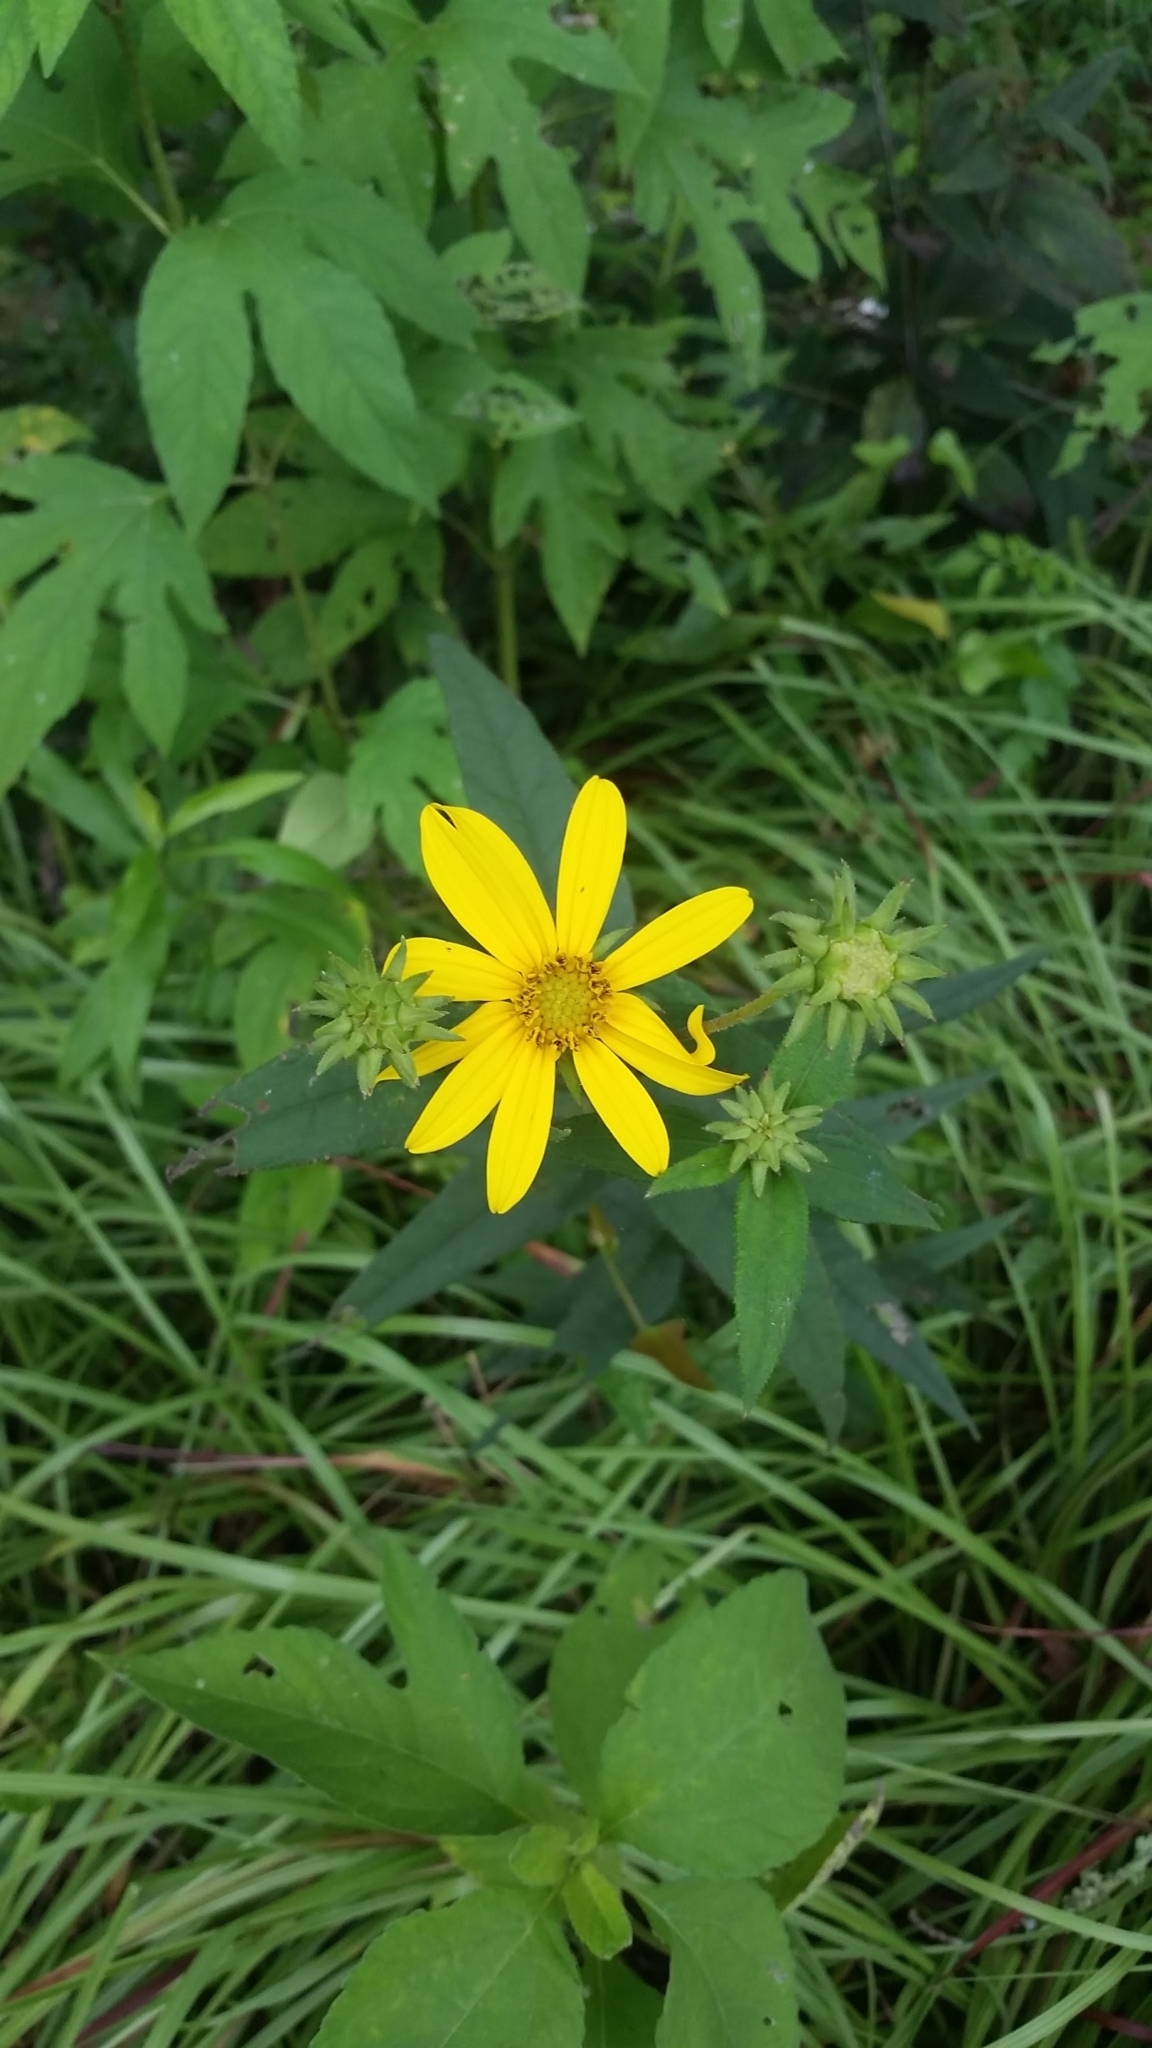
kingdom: Plantae
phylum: Tracheophyta
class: Magnoliopsida
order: Asterales
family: Asteraceae
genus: Helianthus
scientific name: Helianthus divaricatus
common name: Divergent sunflower
